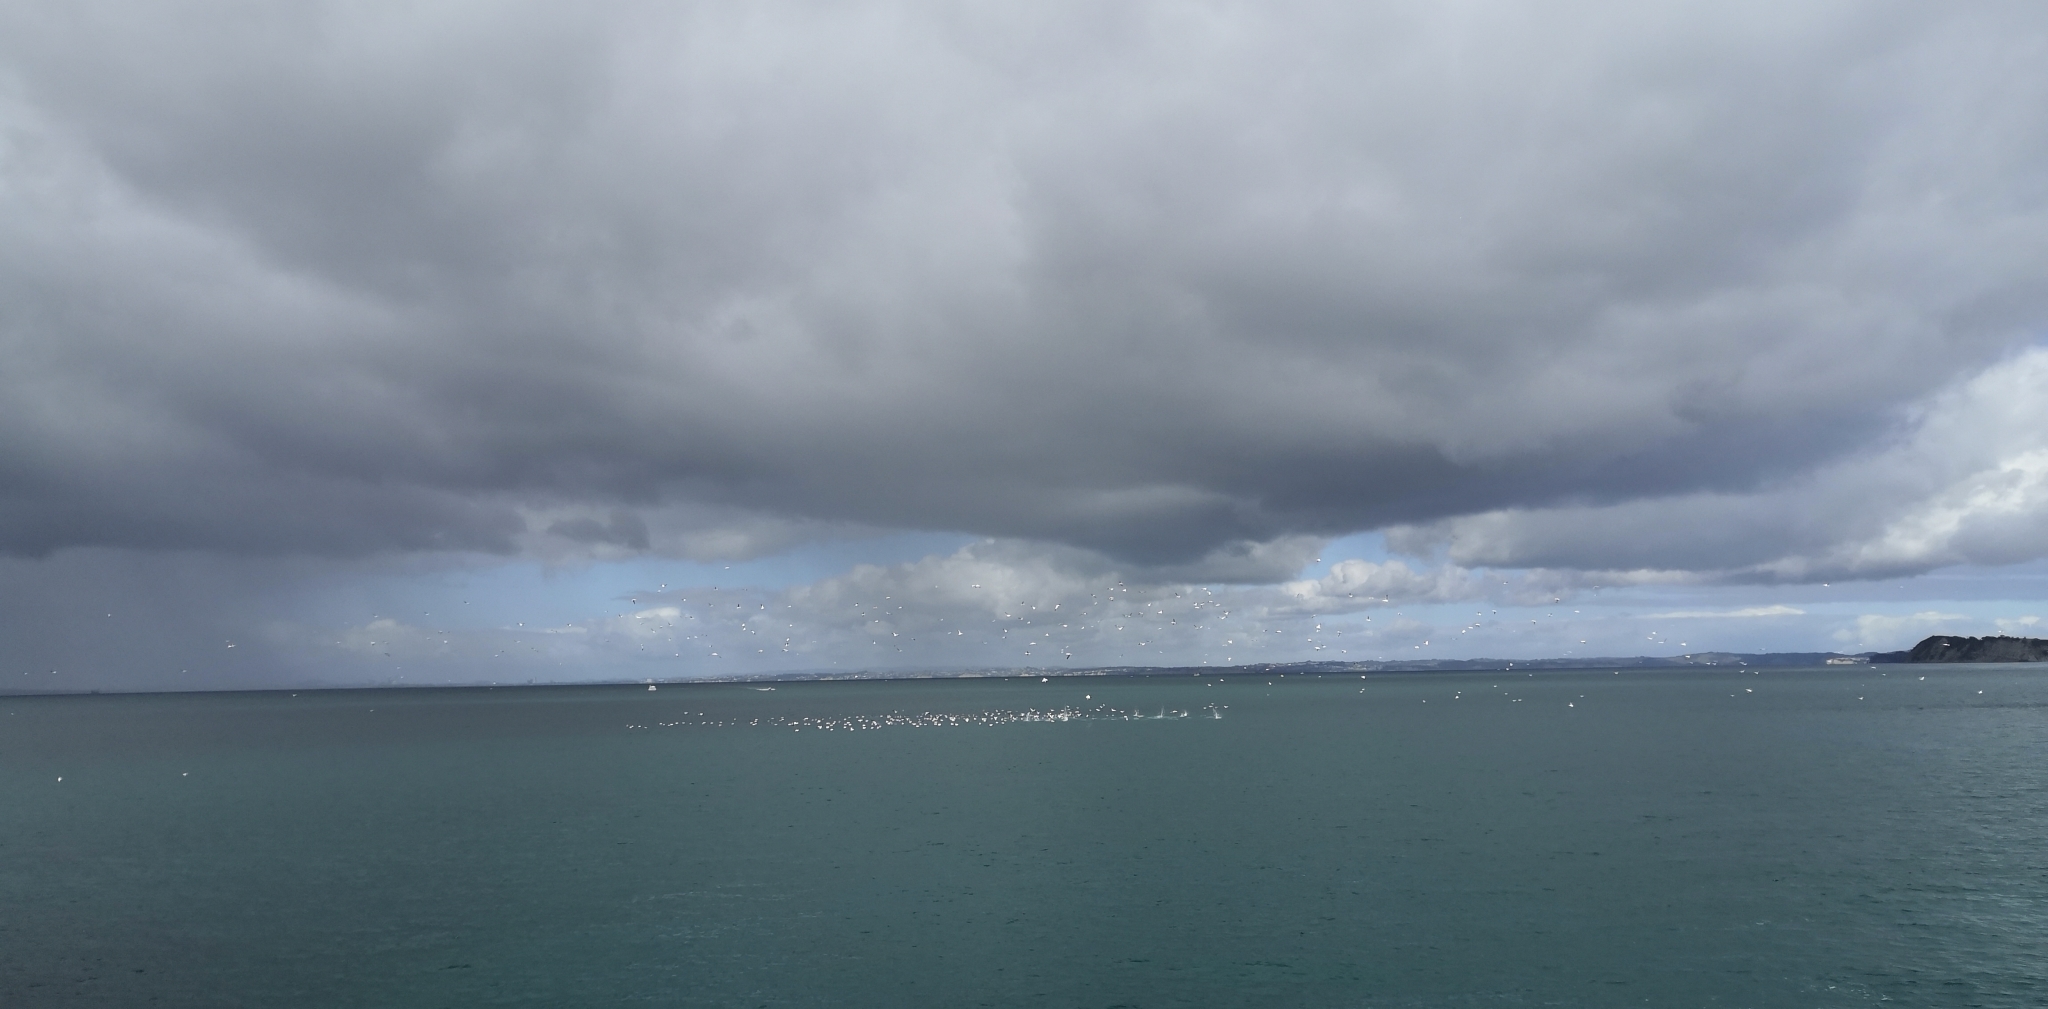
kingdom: Animalia
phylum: Chordata
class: Aves
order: Suliformes
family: Sulidae
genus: Morus
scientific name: Morus serrator
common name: Australasian gannet
